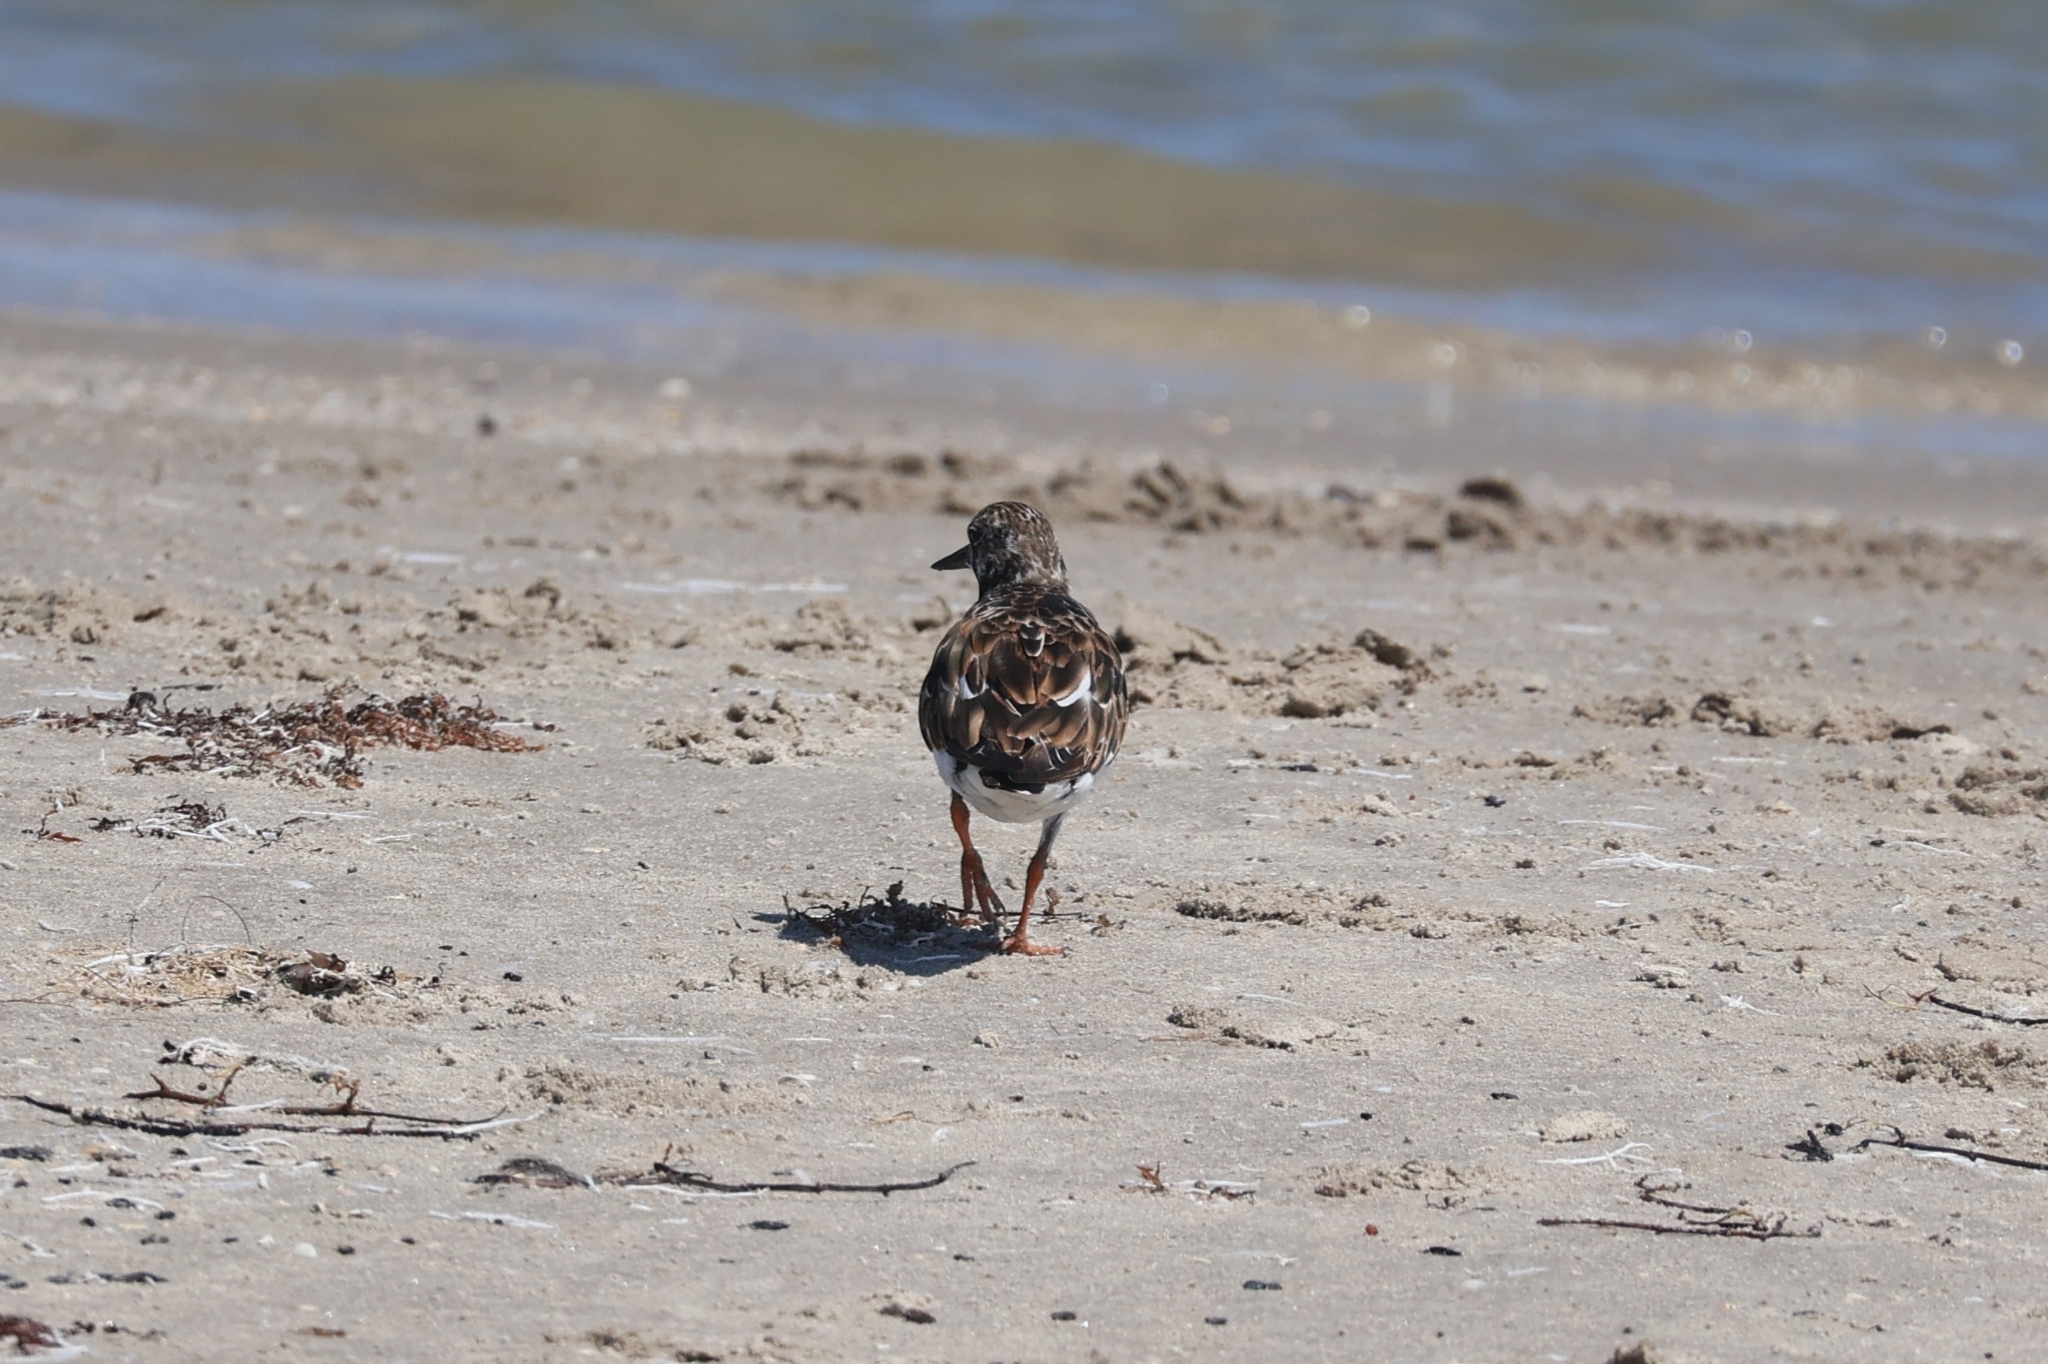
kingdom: Animalia
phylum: Chordata
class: Aves
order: Charadriiformes
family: Scolopacidae
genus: Arenaria
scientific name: Arenaria interpres
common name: Ruddy turnstone
